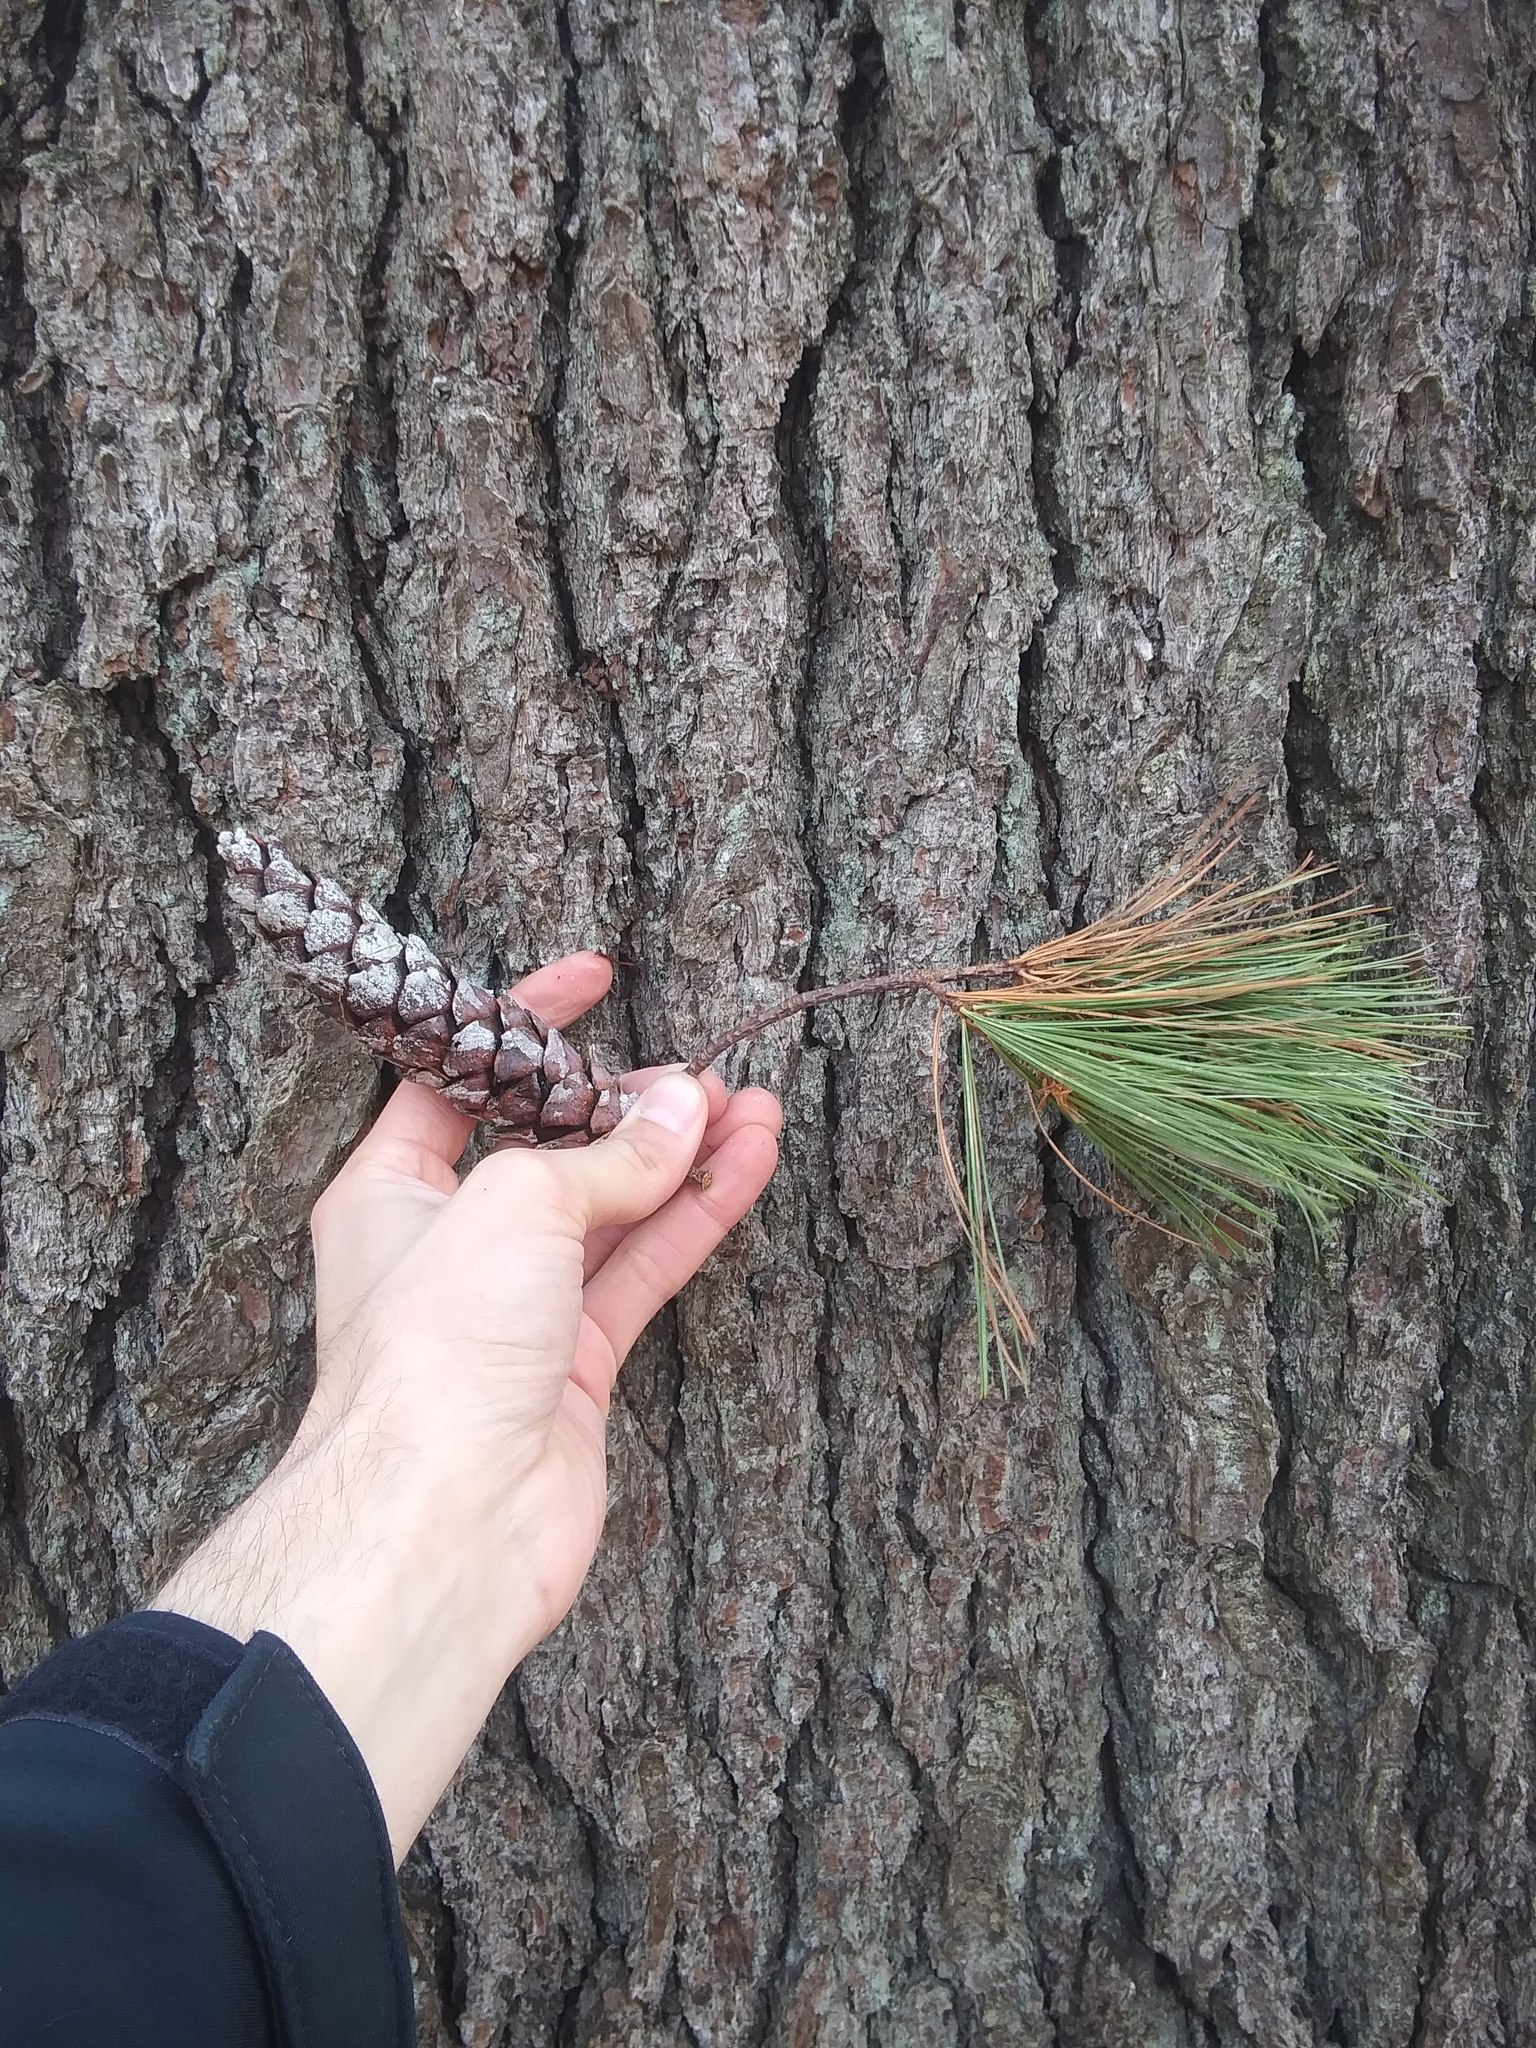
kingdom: Plantae
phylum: Tracheophyta
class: Pinopsida
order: Pinales
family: Pinaceae
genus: Pinus
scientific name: Pinus strobus
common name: Weymouth pine
